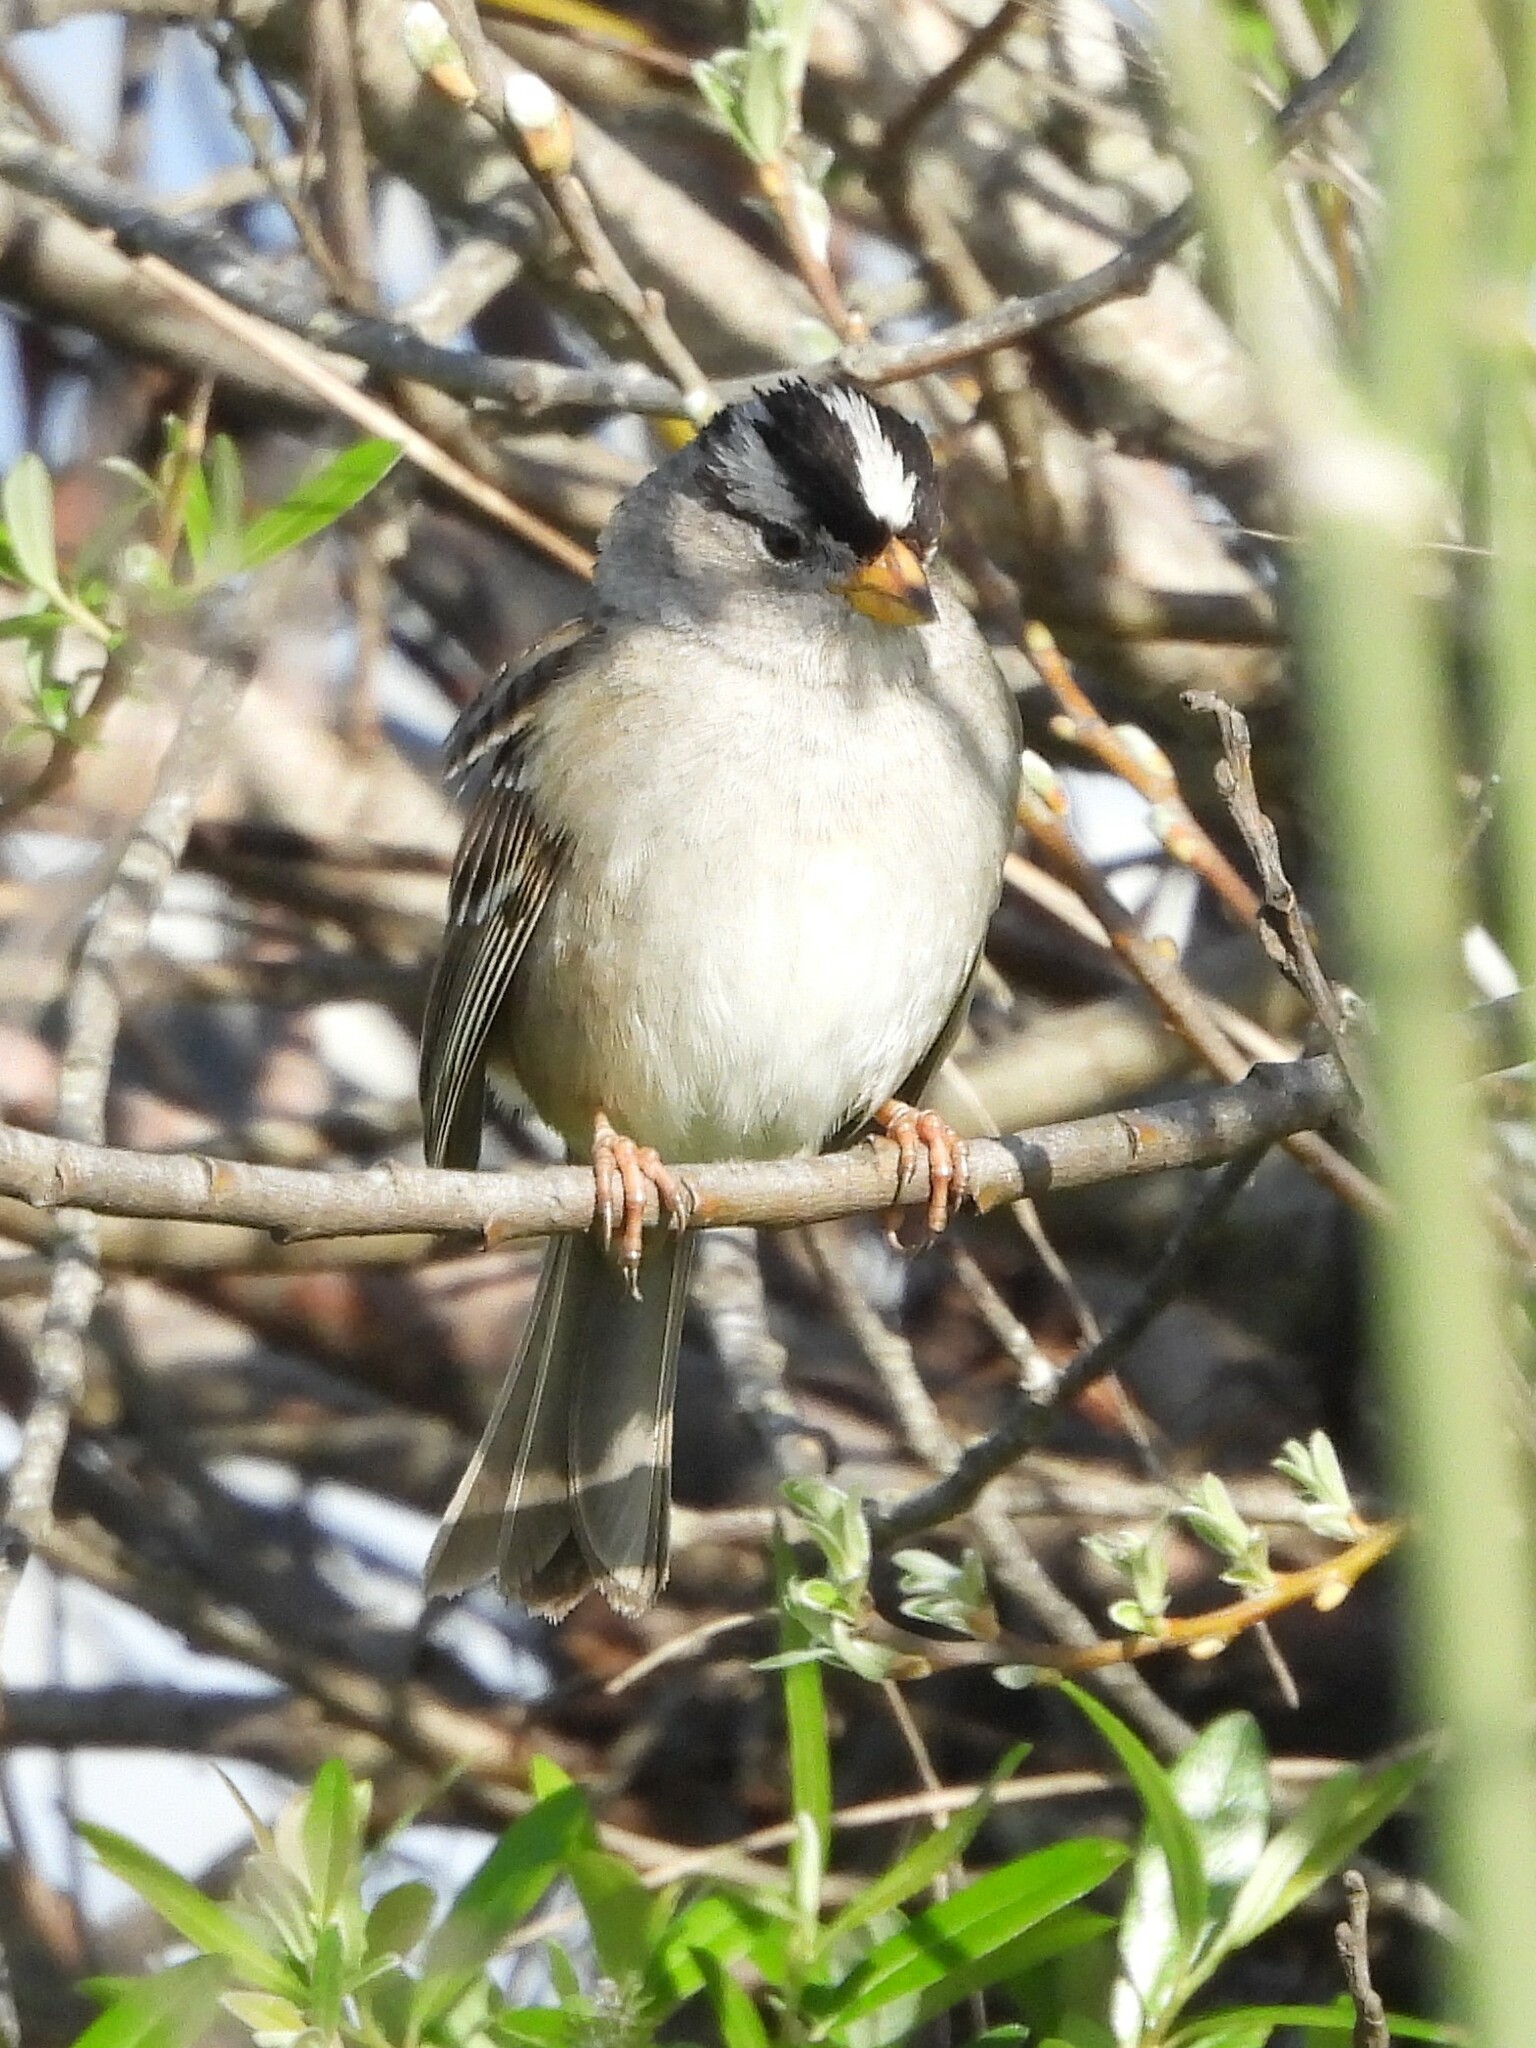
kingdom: Animalia
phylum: Chordata
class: Aves
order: Passeriformes
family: Passerellidae
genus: Zonotrichia
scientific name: Zonotrichia leucophrys
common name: White-crowned sparrow
